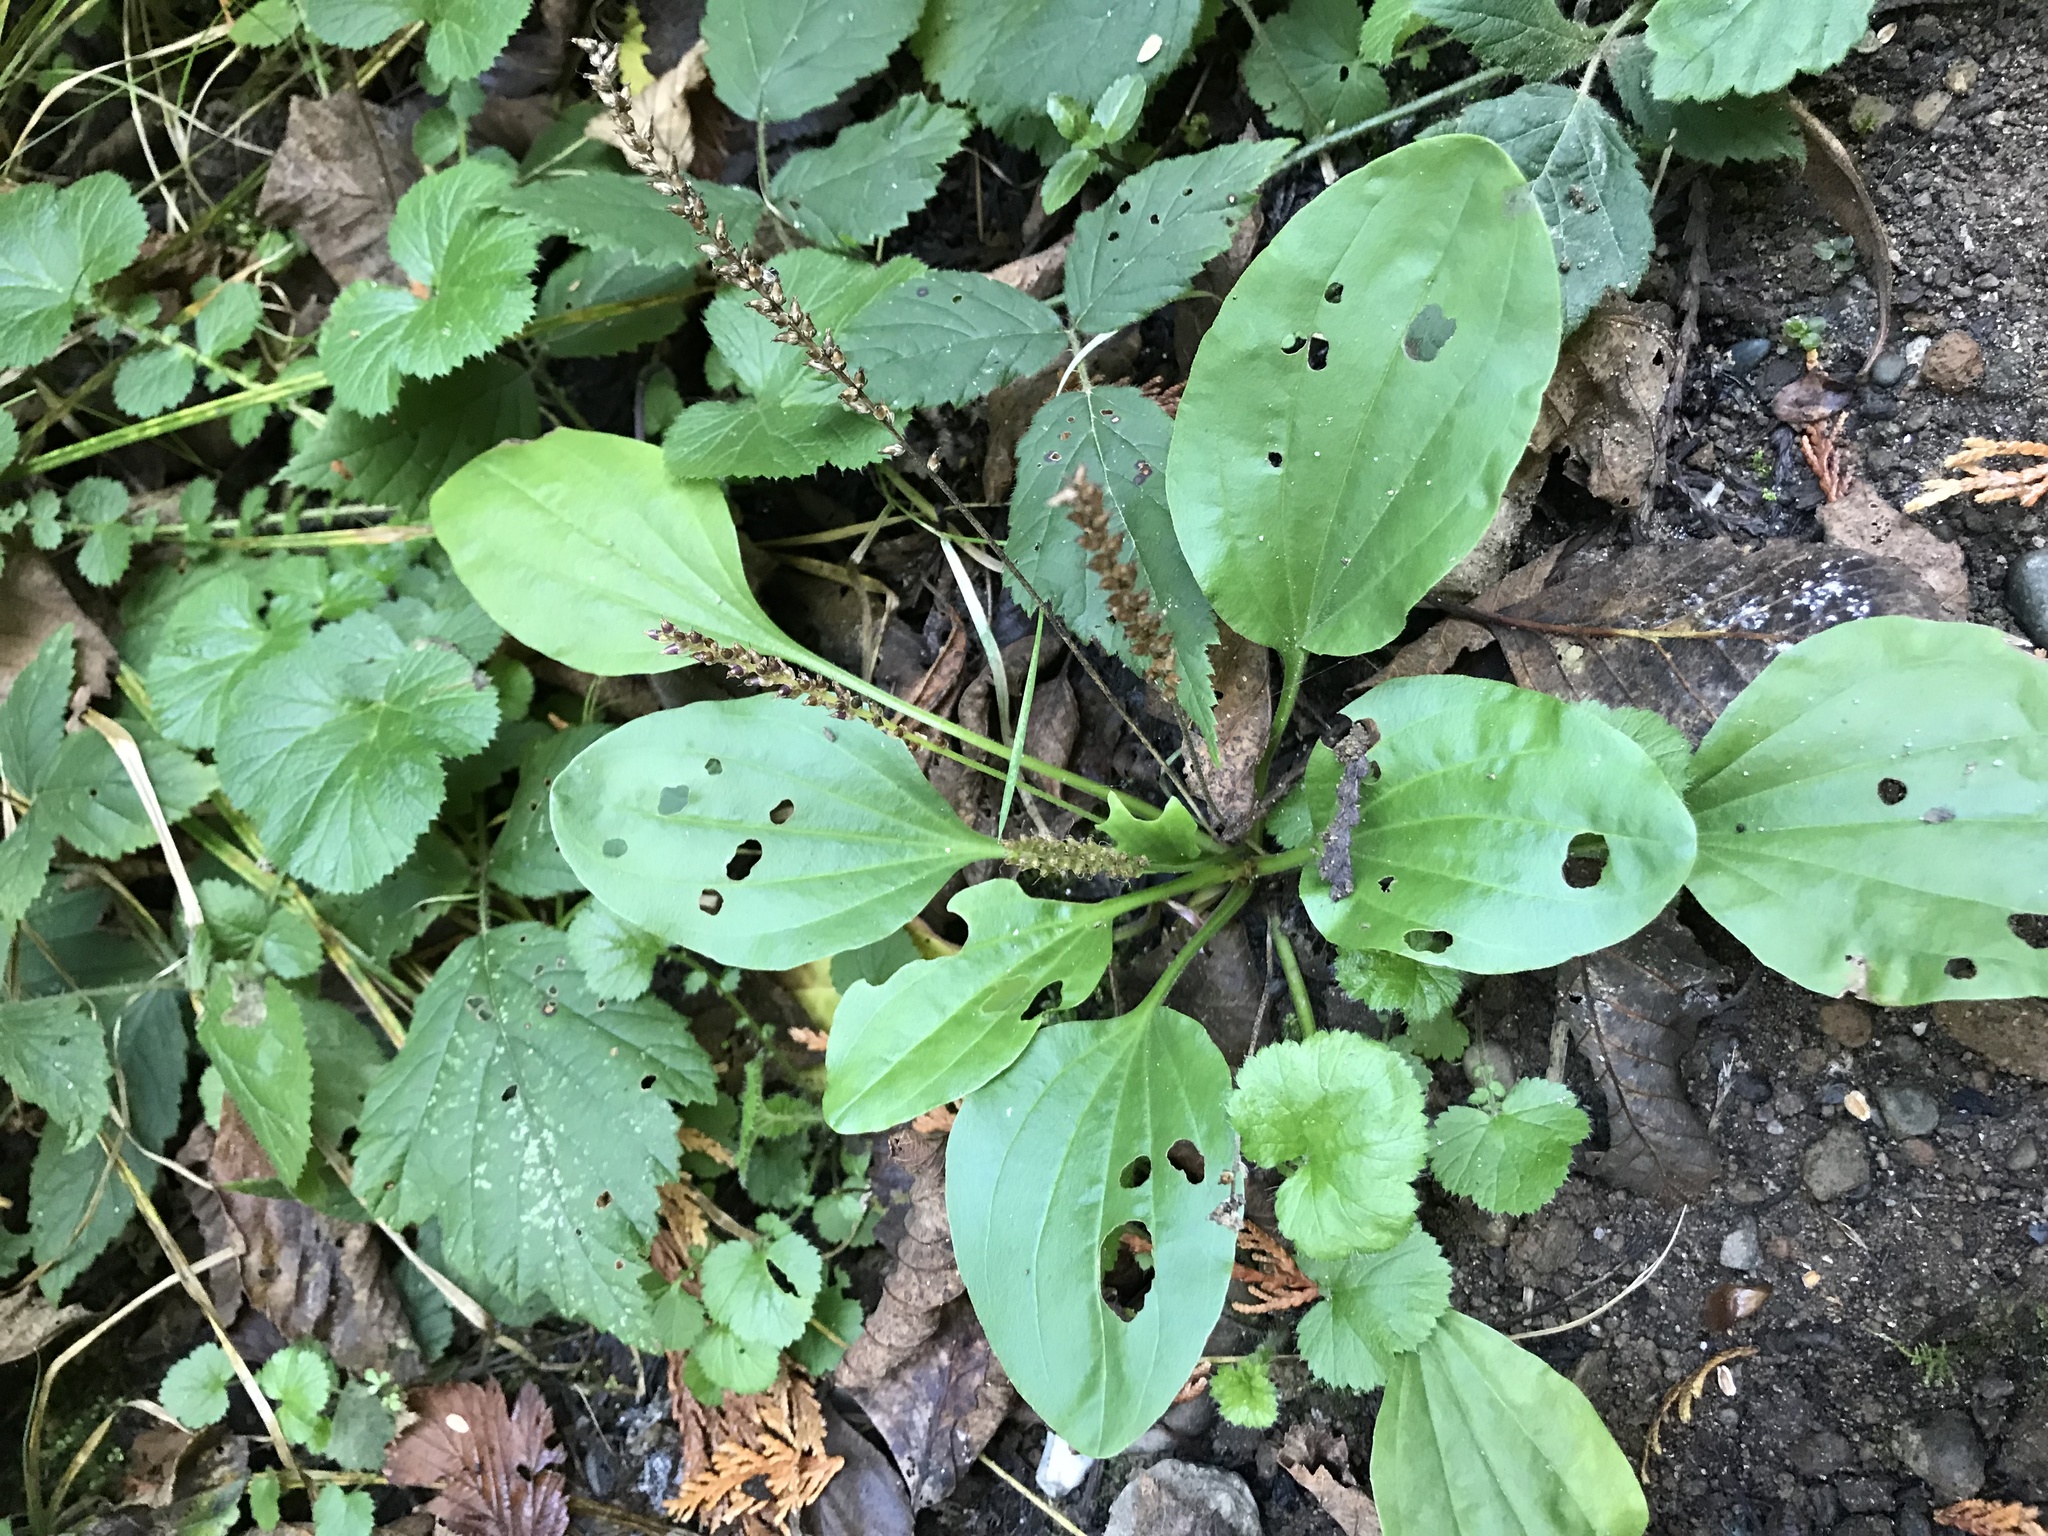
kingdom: Plantae
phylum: Tracheophyta
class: Magnoliopsida
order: Lamiales
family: Plantaginaceae
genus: Plantago
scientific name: Plantago major
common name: Common plantain
